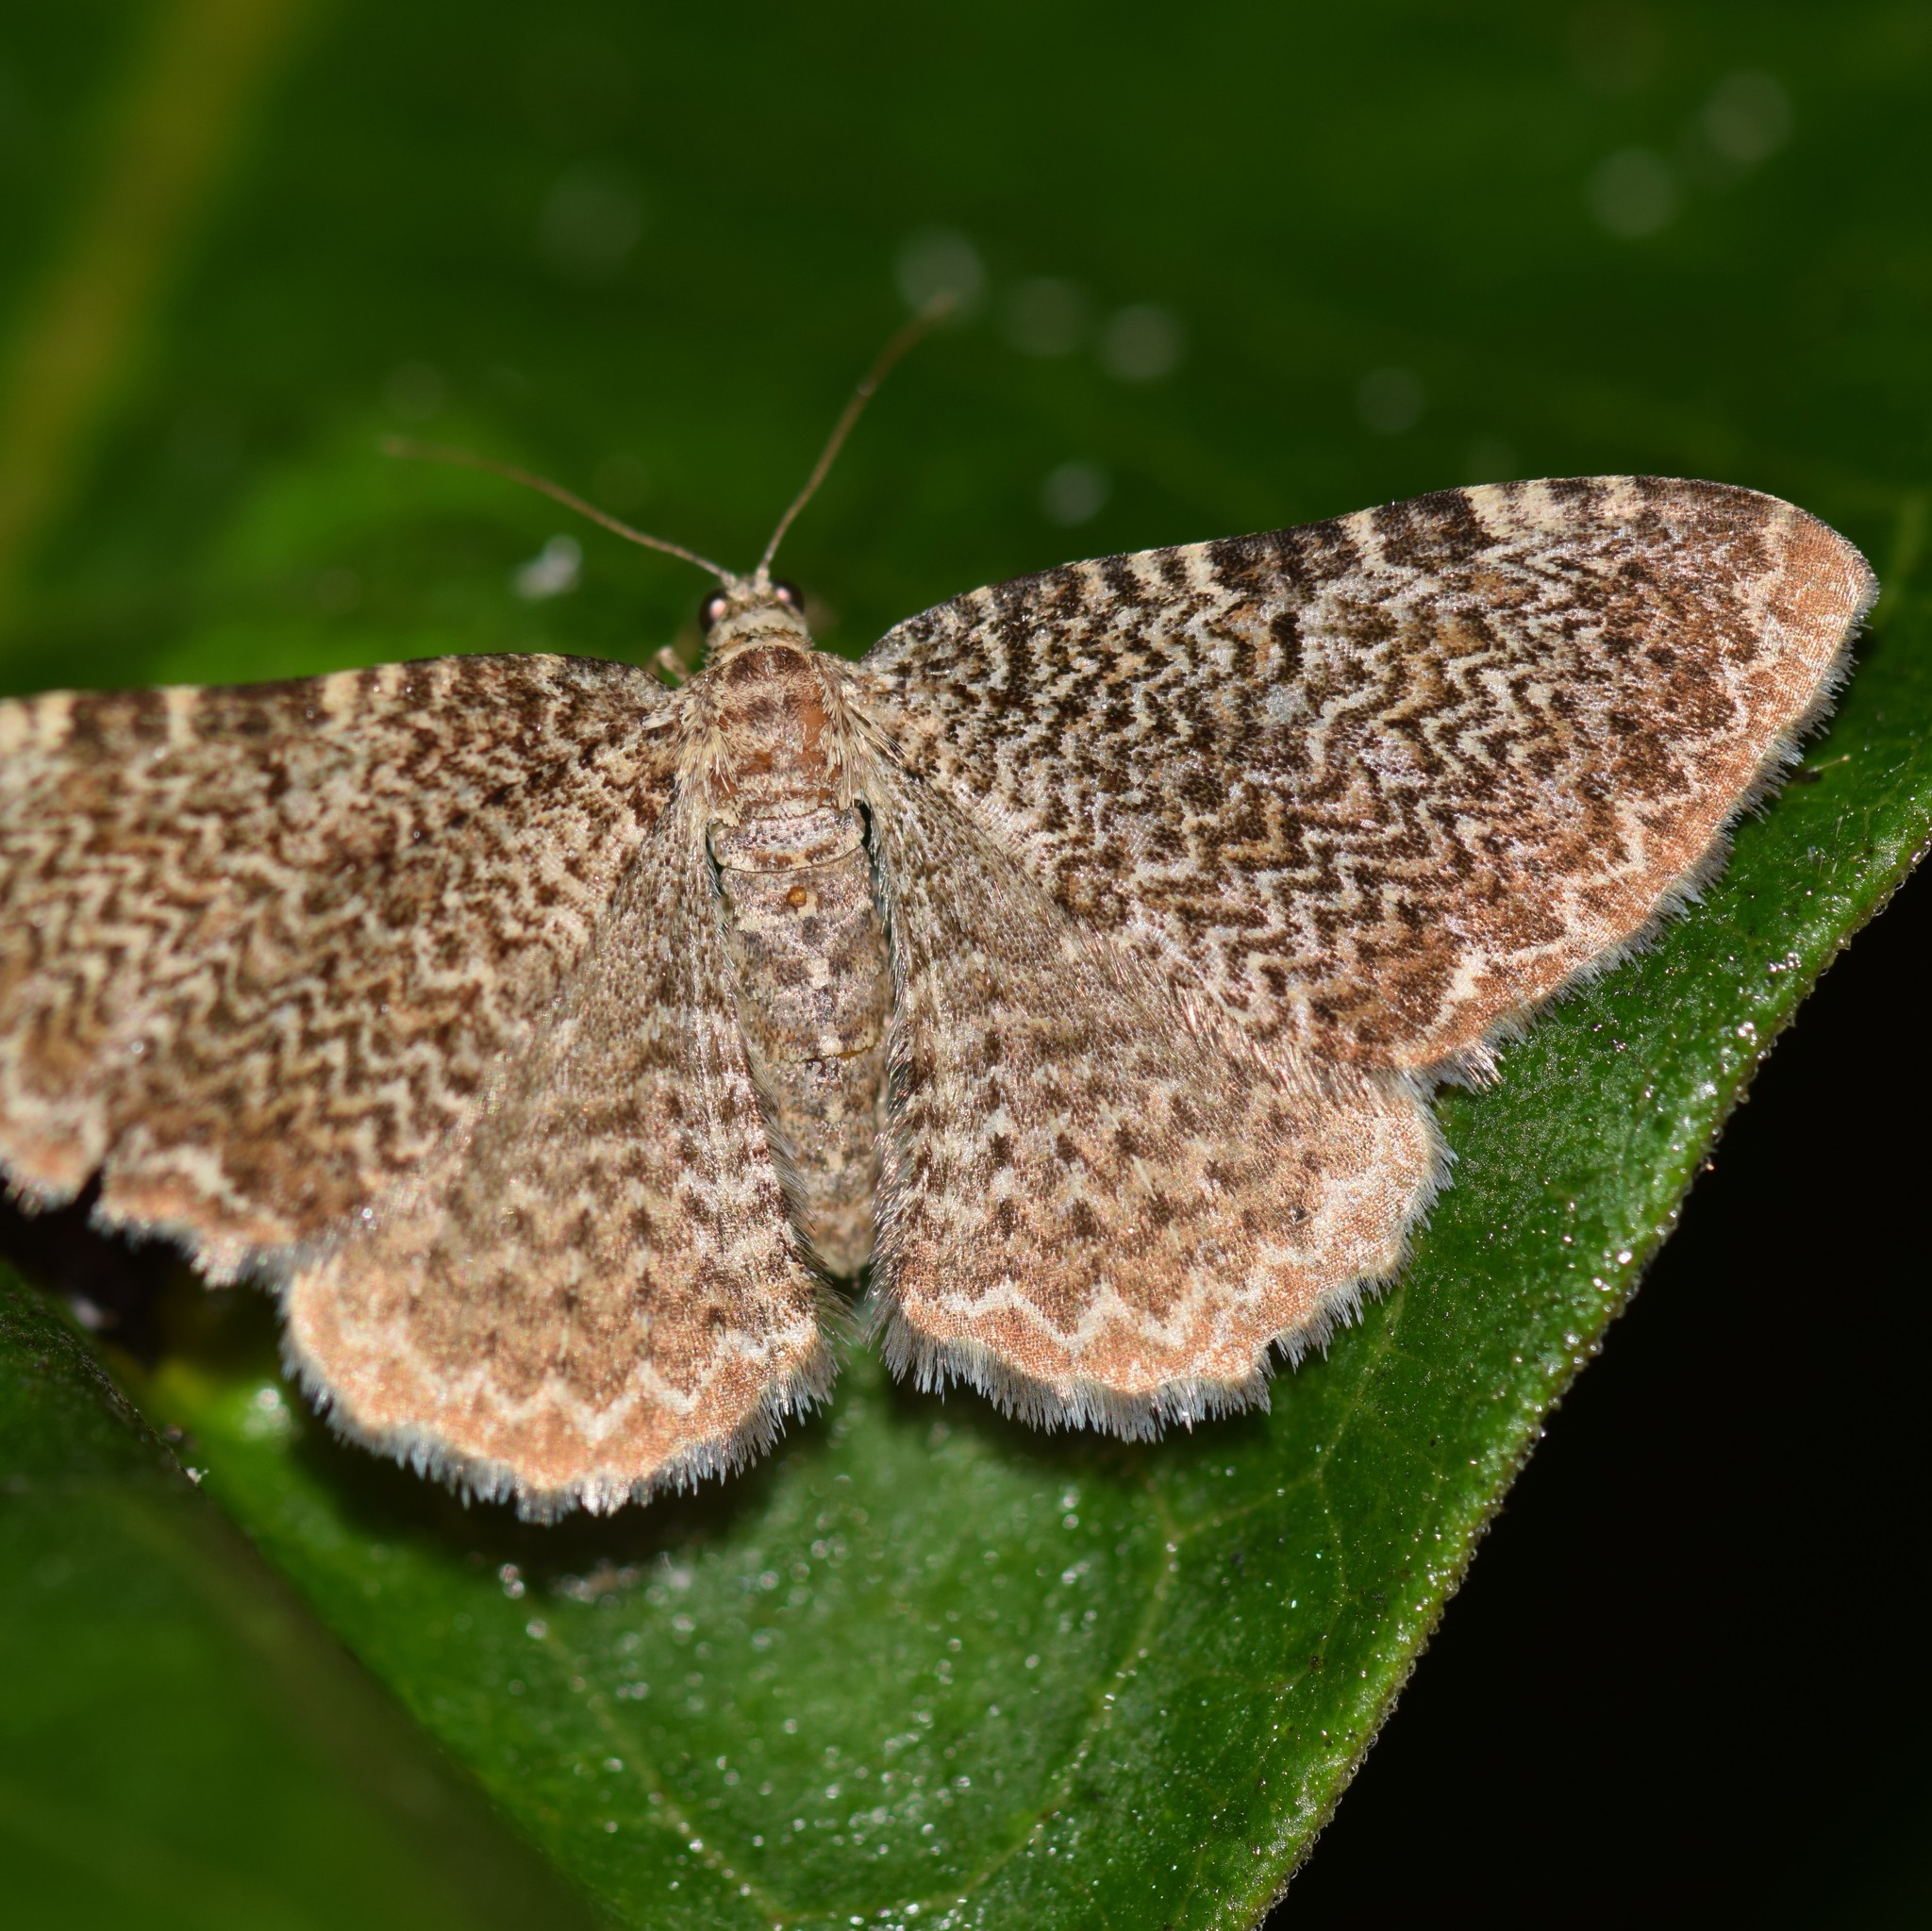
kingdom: Animalia
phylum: Arthropoda
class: Insecta
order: Lepidoptera
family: Geometridae
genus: Rheumaptera
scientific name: Rheumaptera
